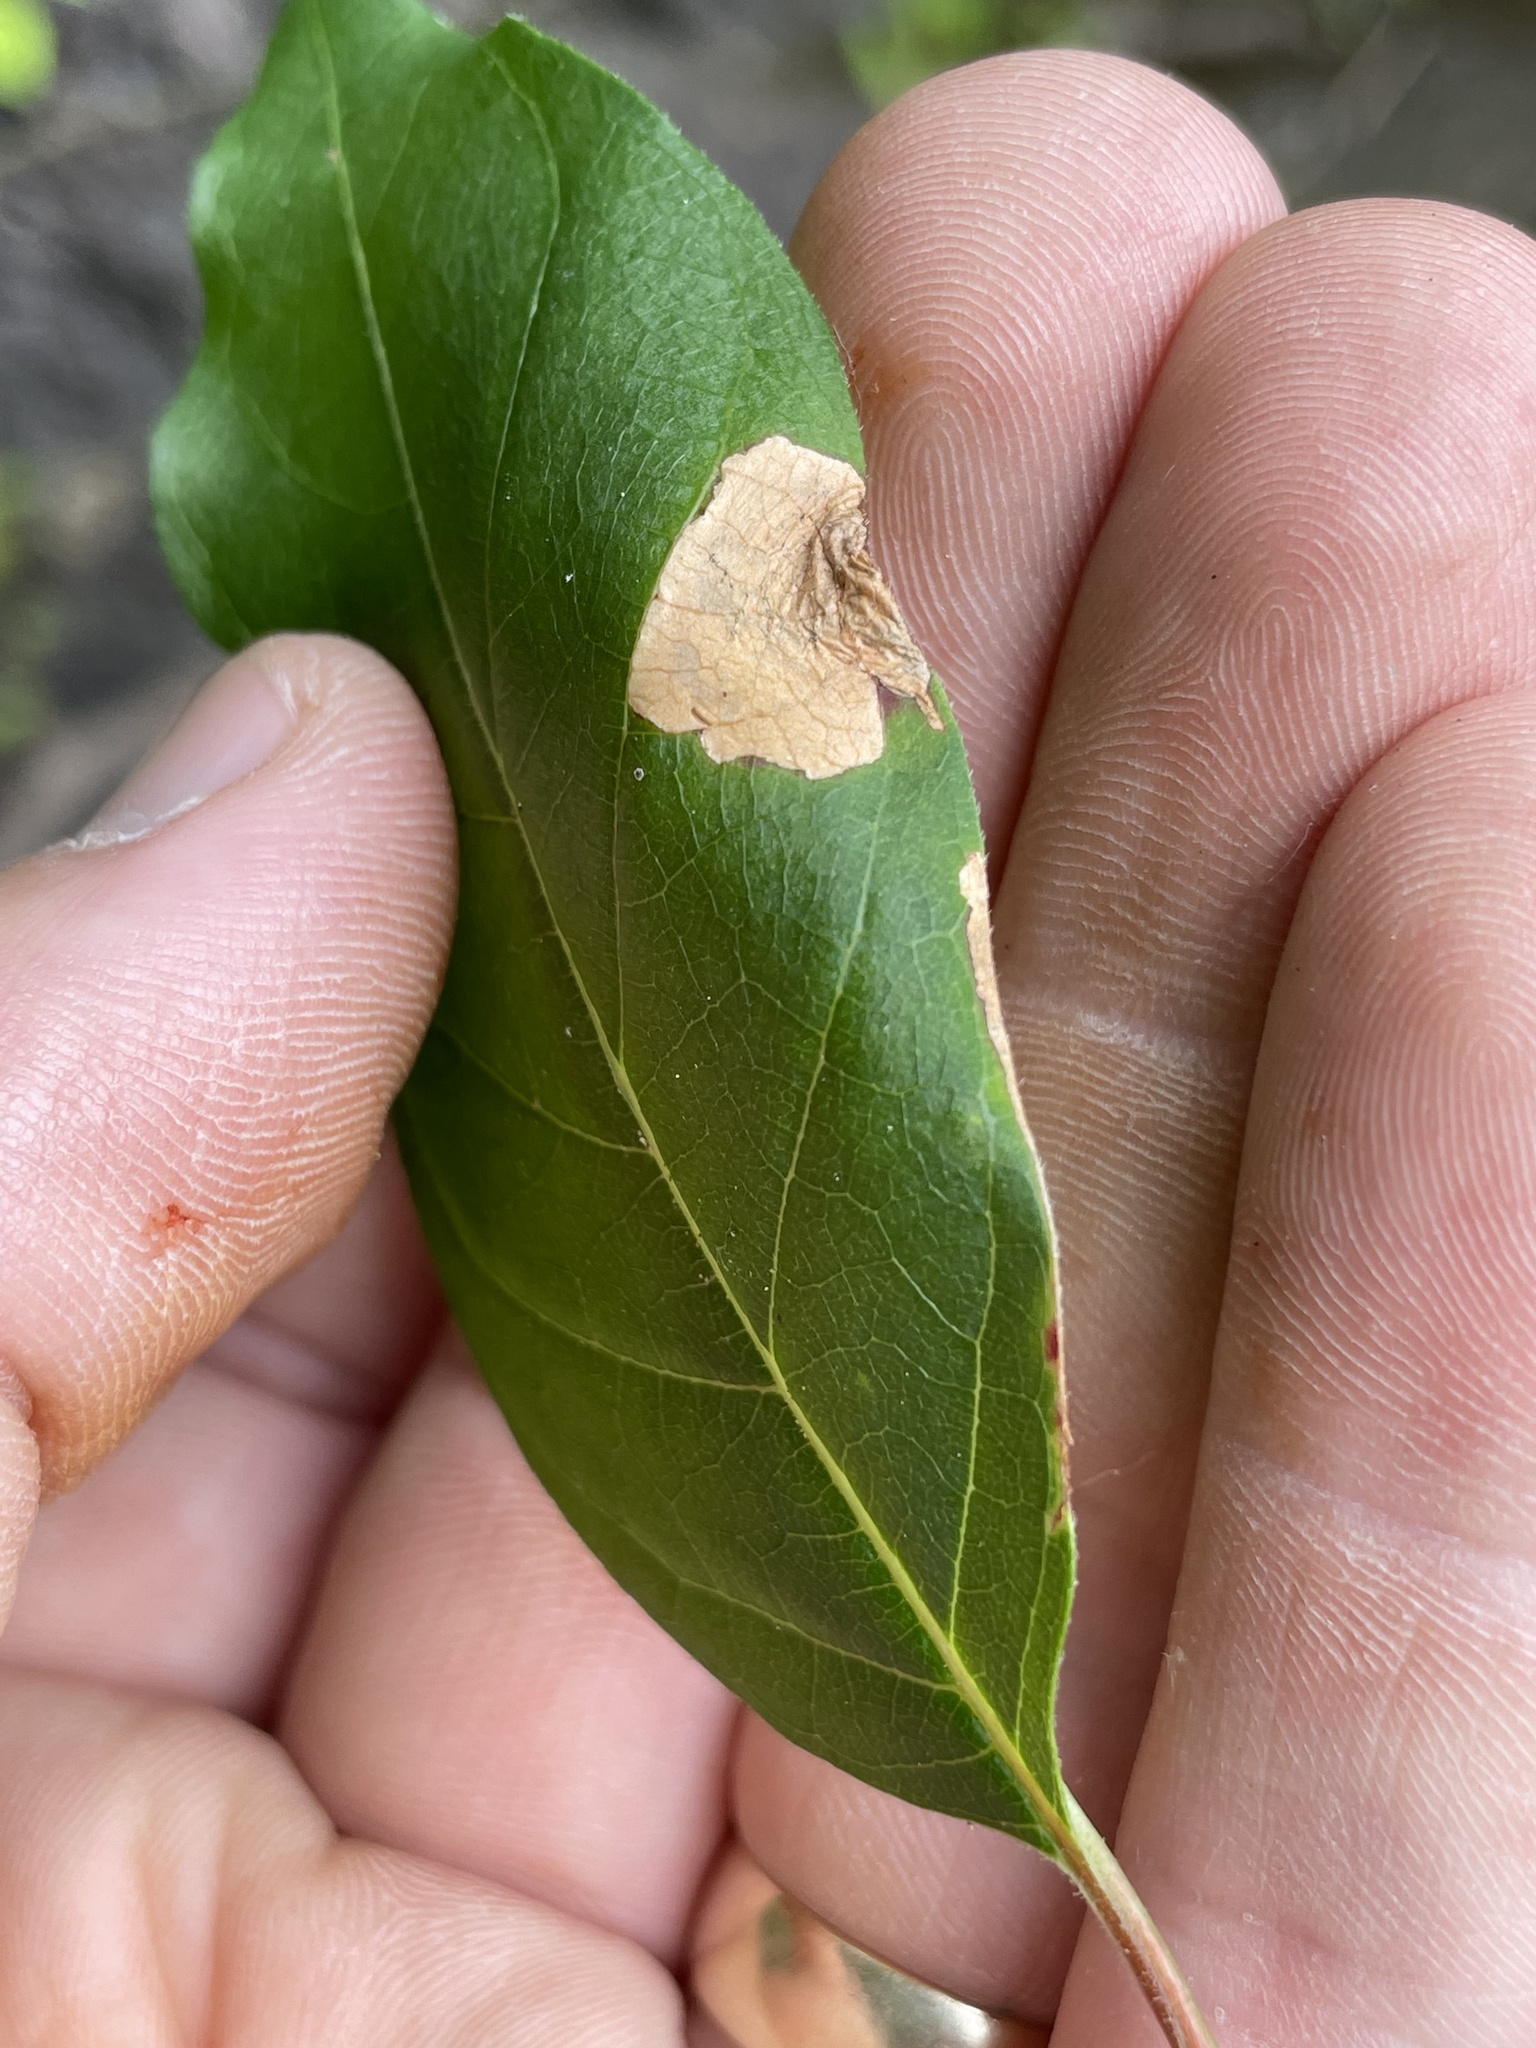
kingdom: Animalia
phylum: Arthropoda
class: Insecta
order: Lepidoptera
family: Momphidae
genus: Mompha
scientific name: Mompha solomoni
